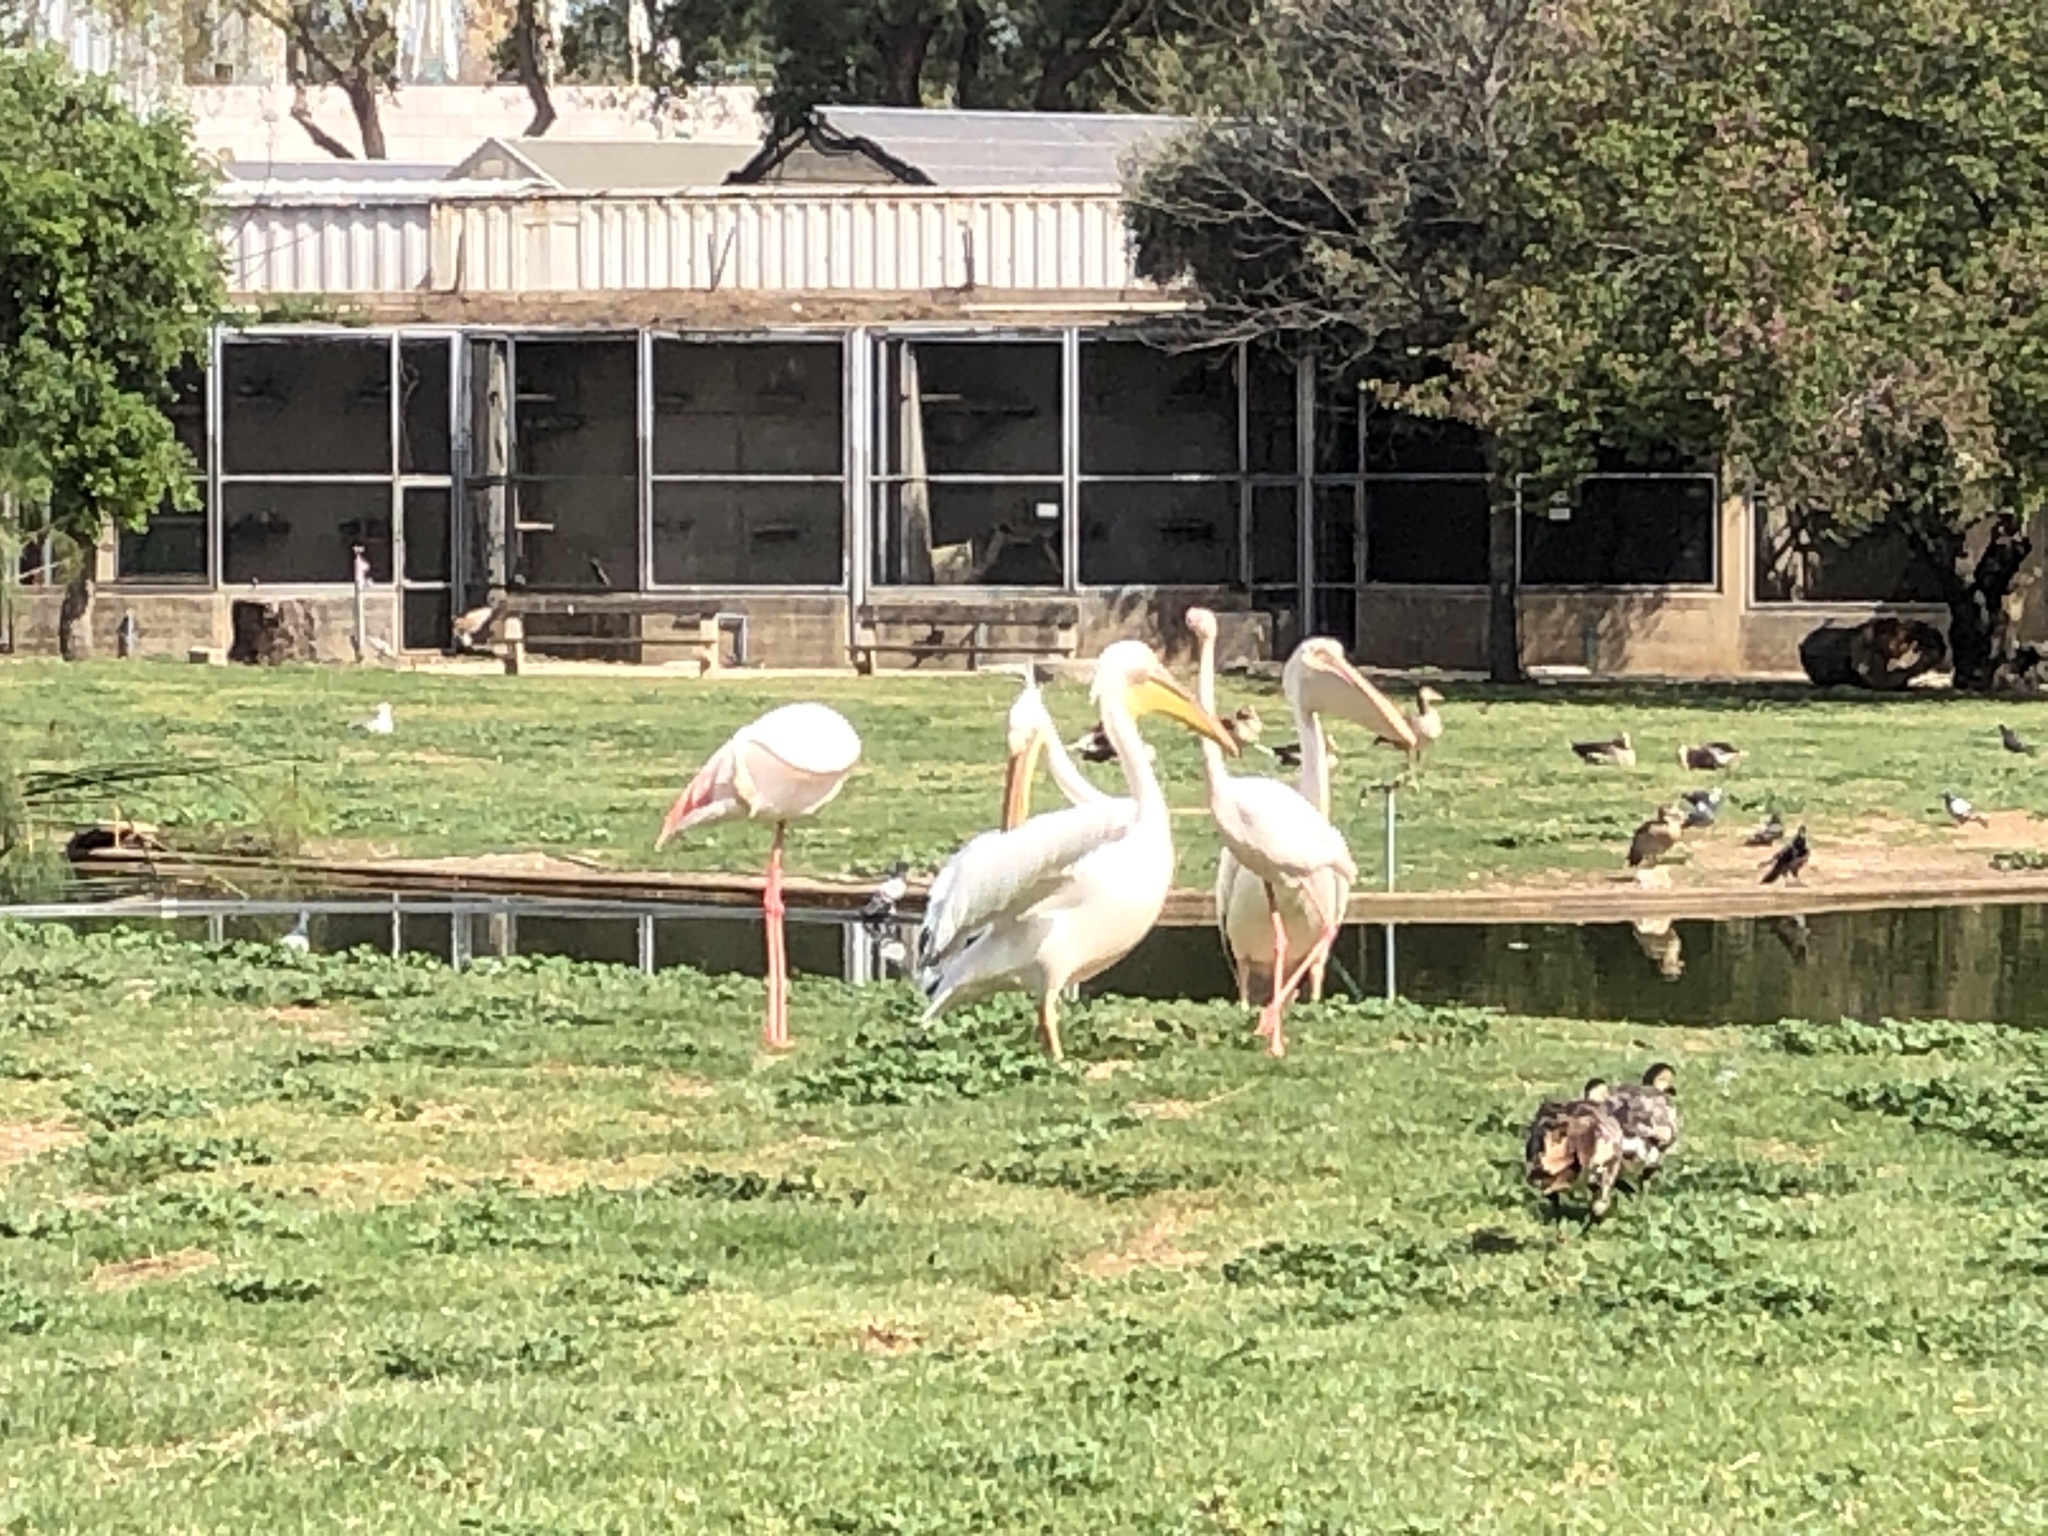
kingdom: Animalia
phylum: Chordata
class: Aves
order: Pelecaniformes
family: Pelecanidae
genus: Pelecanus
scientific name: Pelecanus onocrotalus
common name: Great white pelican
